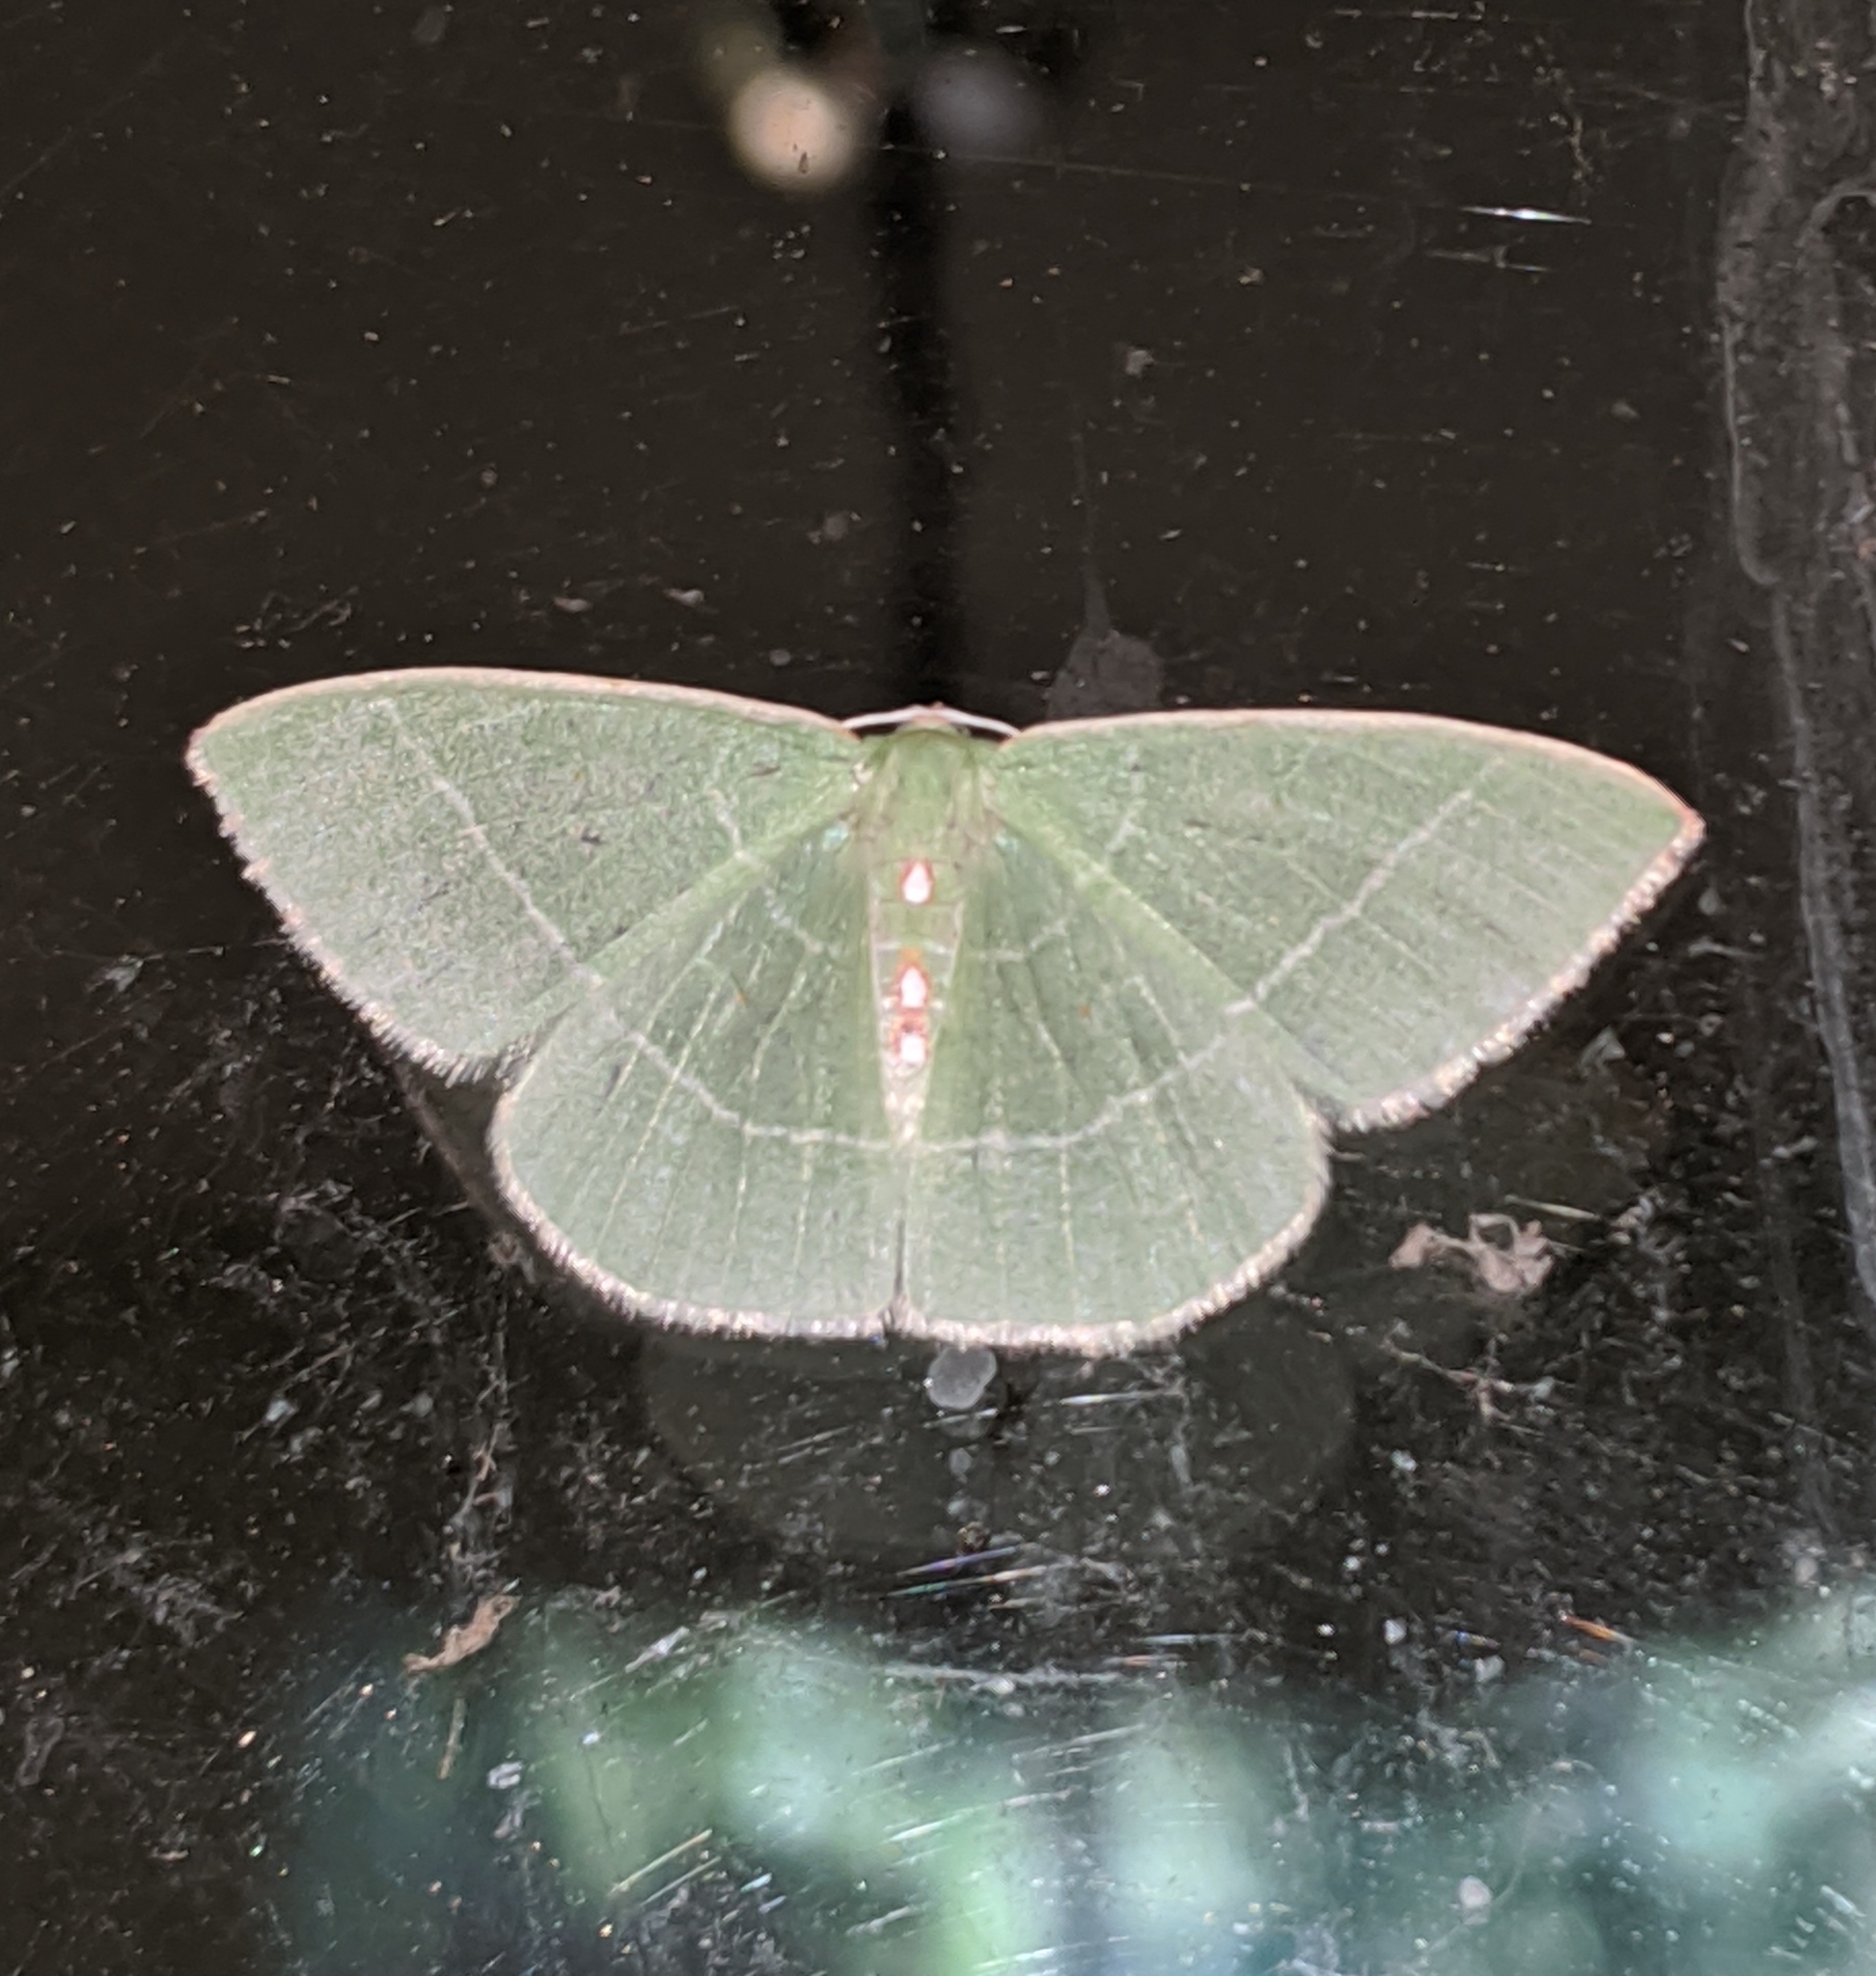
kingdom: Animalia
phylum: Arthropoda
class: Insecta
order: Lepidoptera
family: Geometridae
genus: Nemoria
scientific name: Nemoria darwiniata
